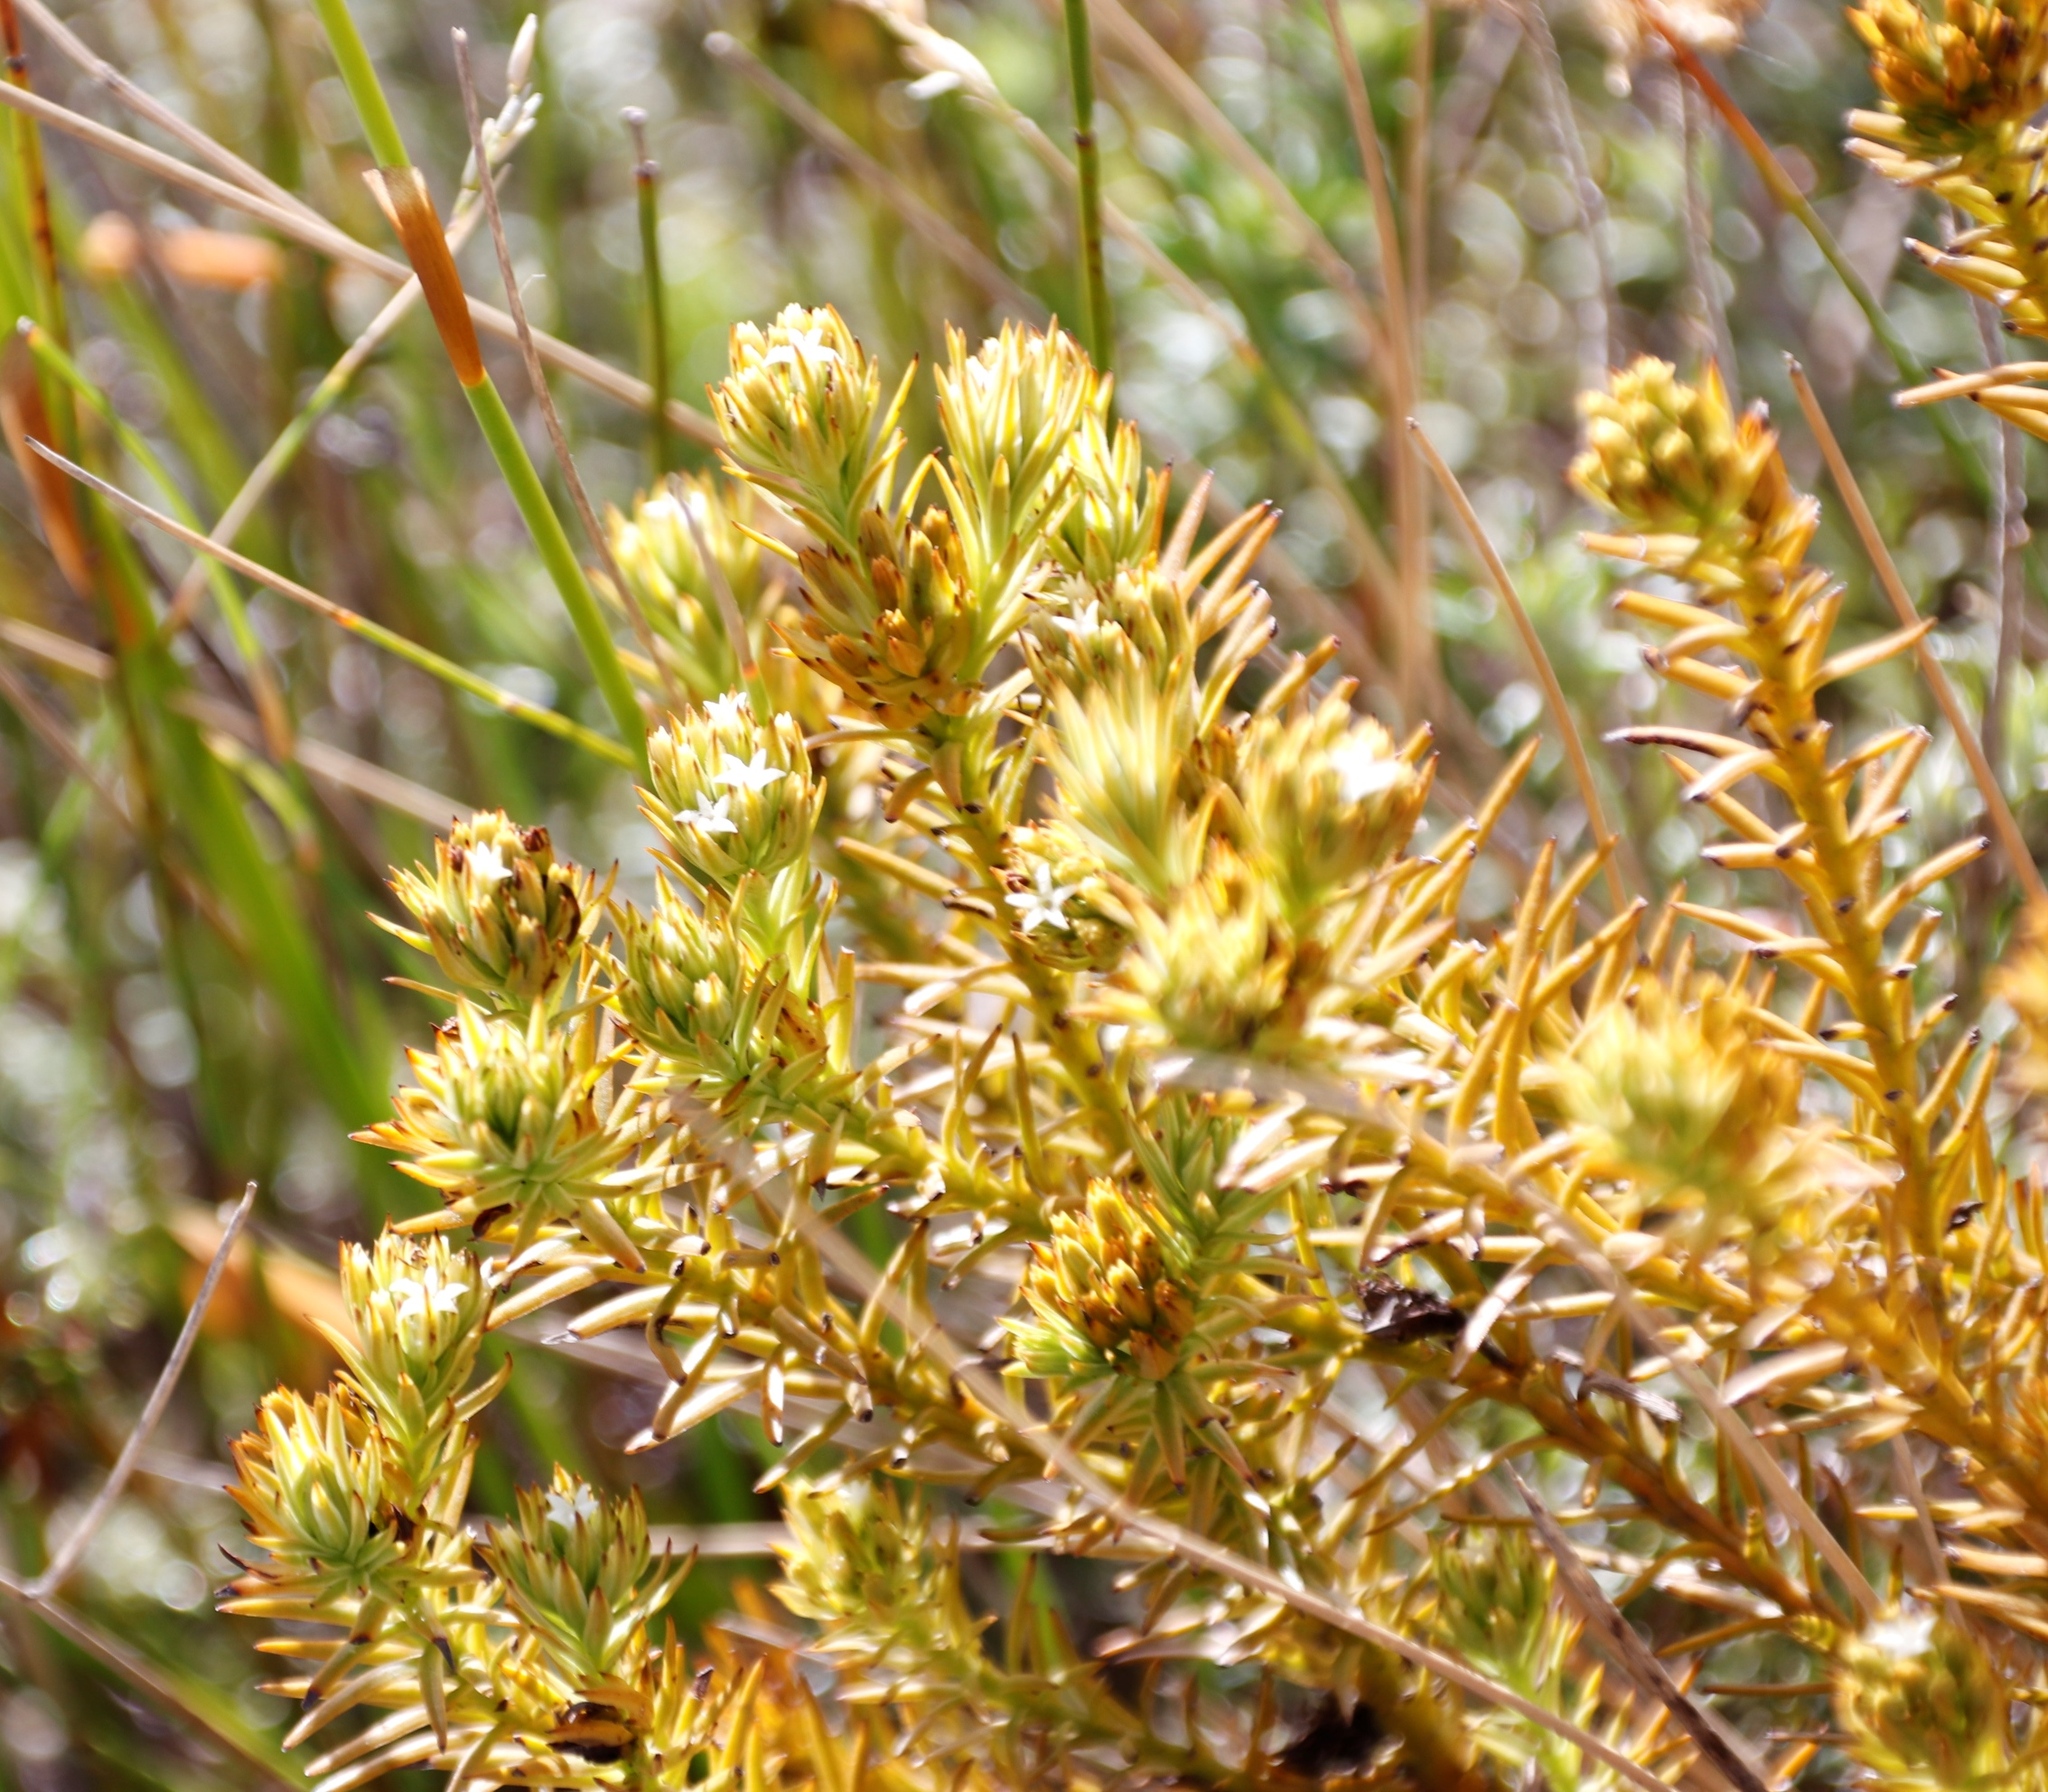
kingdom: Plantae
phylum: Tracheophyta
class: Magnoliopsida
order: Santalales
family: Thesiaceae
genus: Thesium
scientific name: Thesium carinatum
